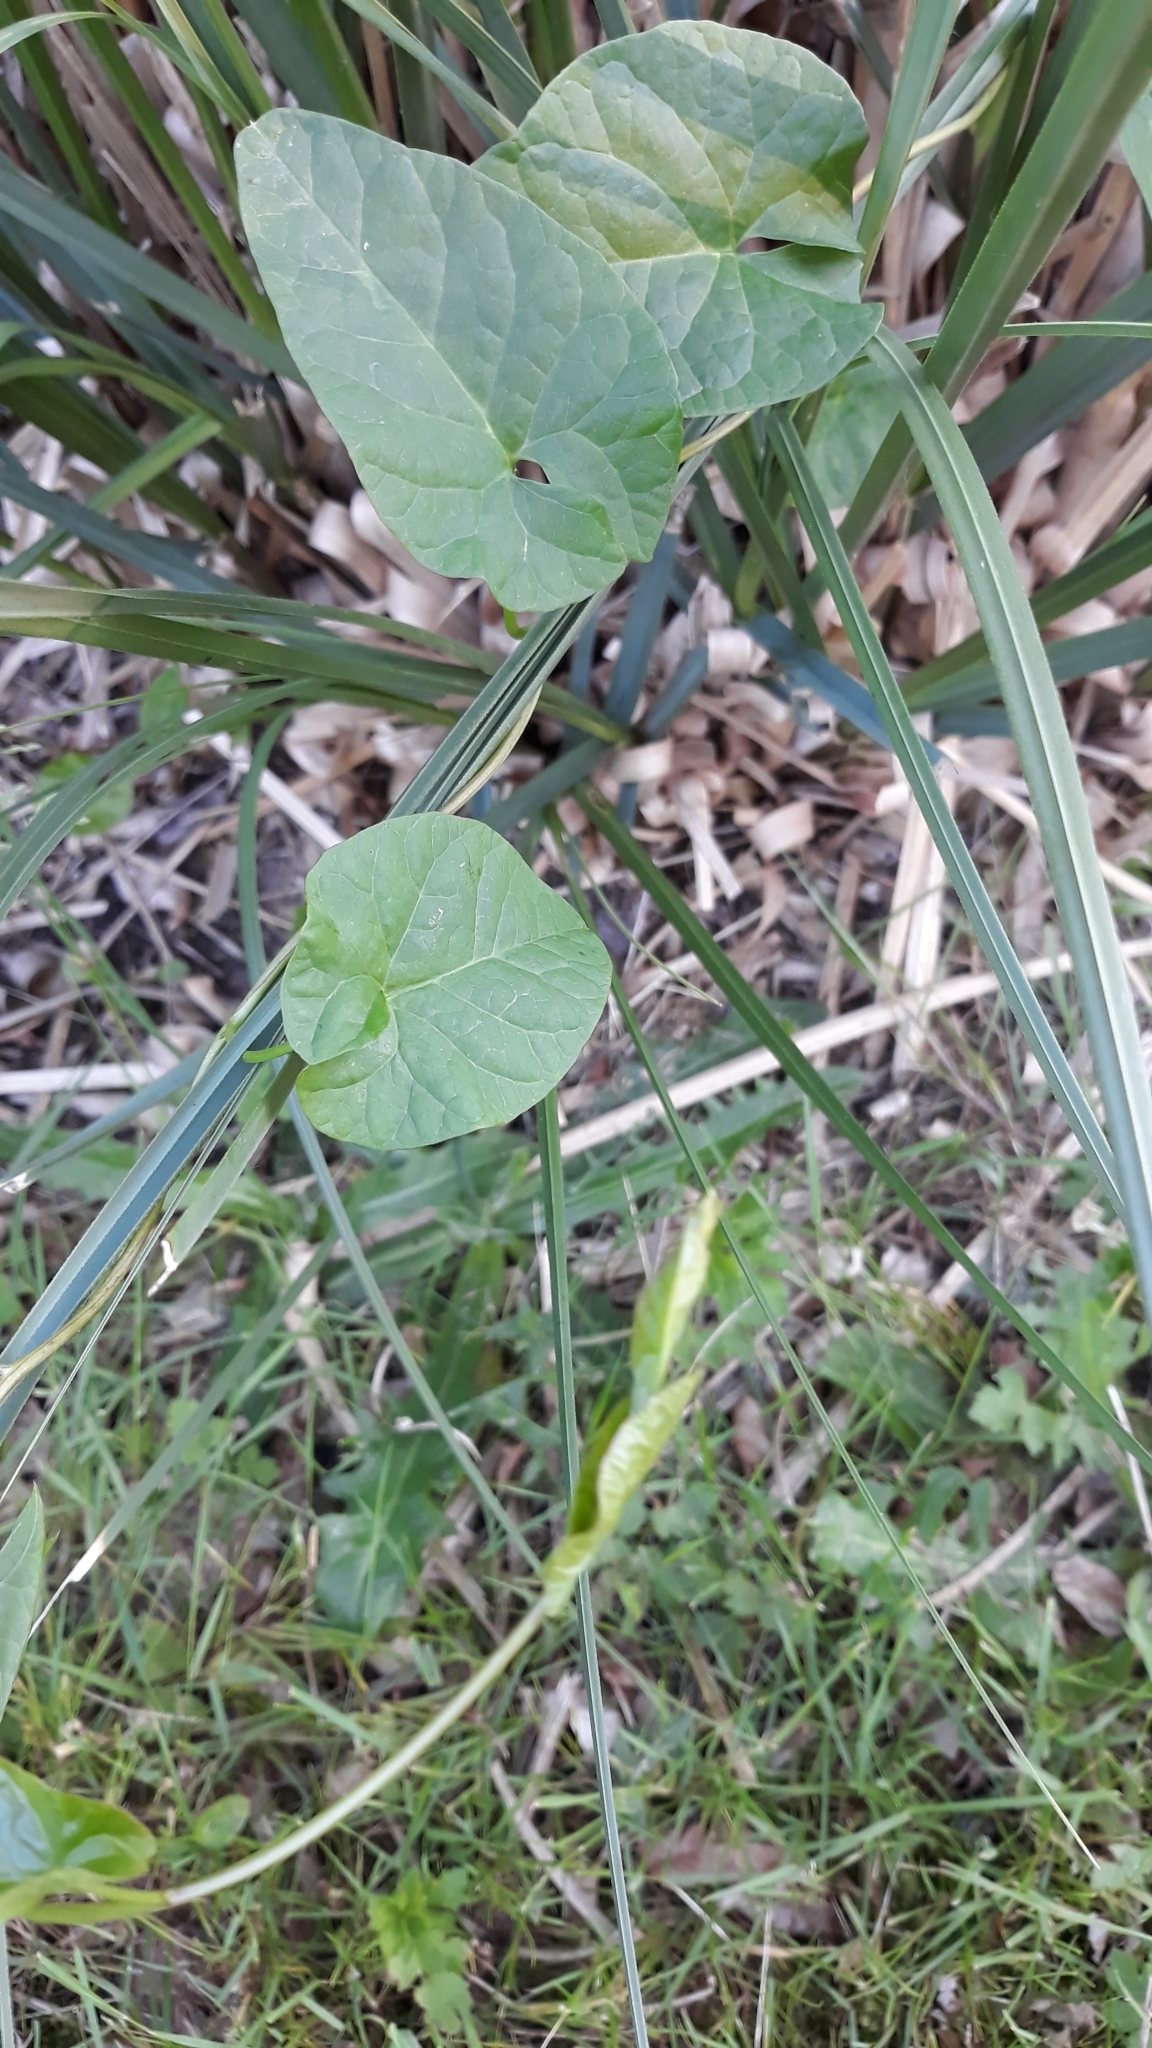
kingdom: Plantae
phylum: Tracheophyta
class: Magnoliopsida
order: Solanales
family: Convolvulaceae
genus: Calystegia
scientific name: Calystegia
